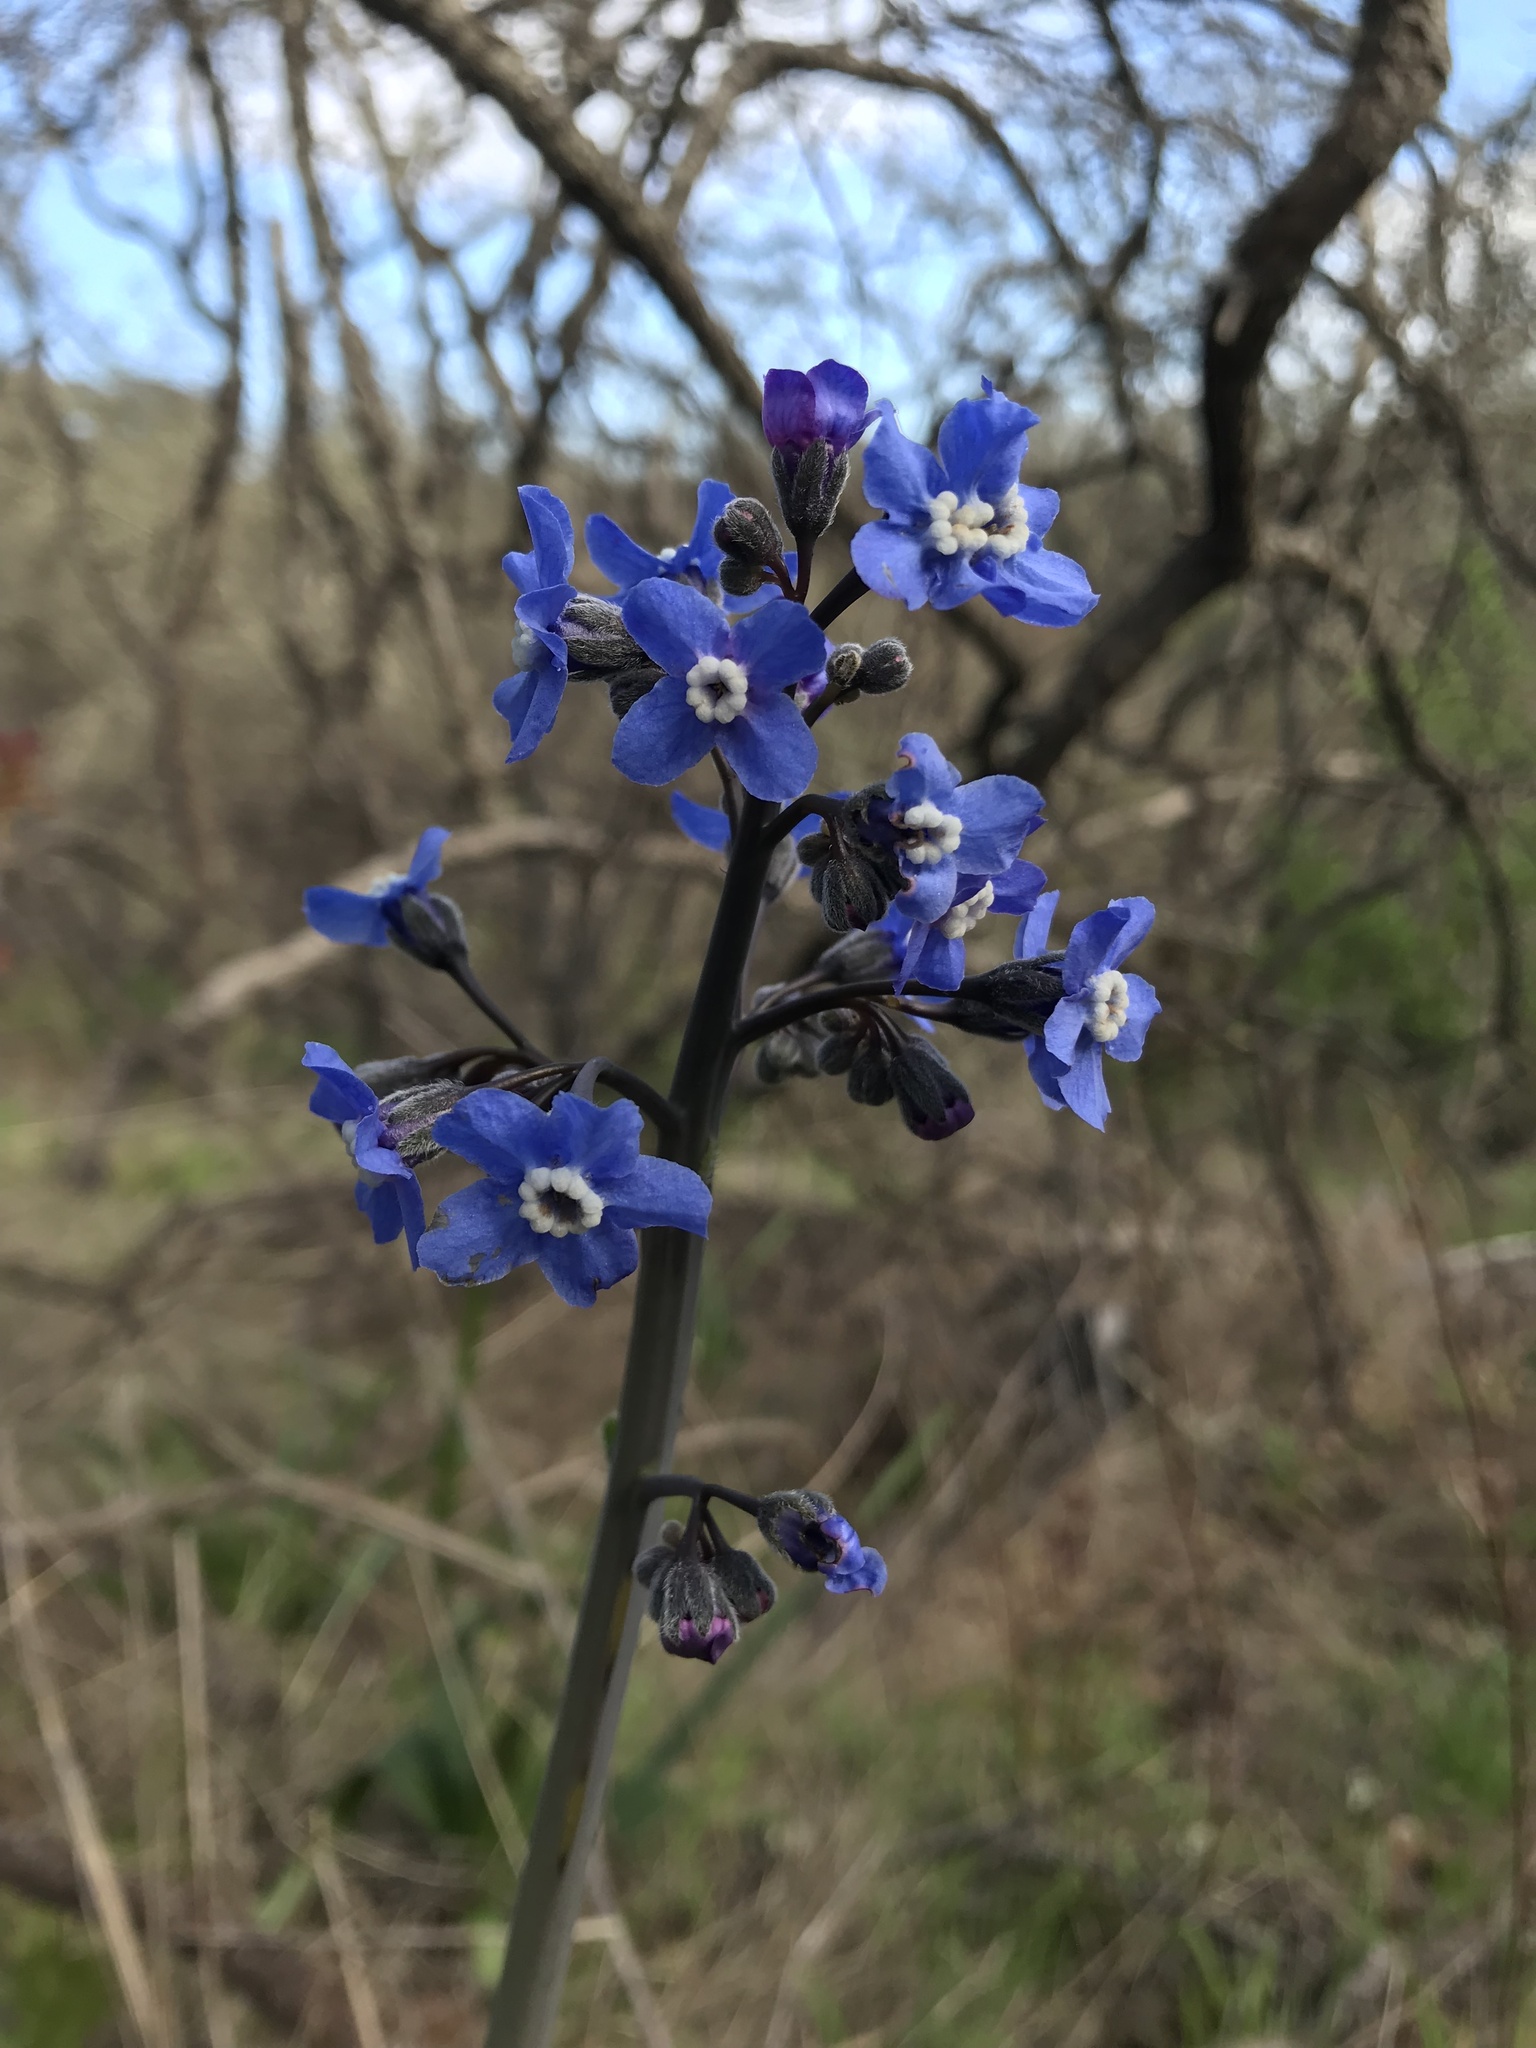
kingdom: Plantae
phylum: Tracheophyta
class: Magnoliopsida
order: Boraginales
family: Boraginaceae
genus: Adelinia
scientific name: Adelinia grande
